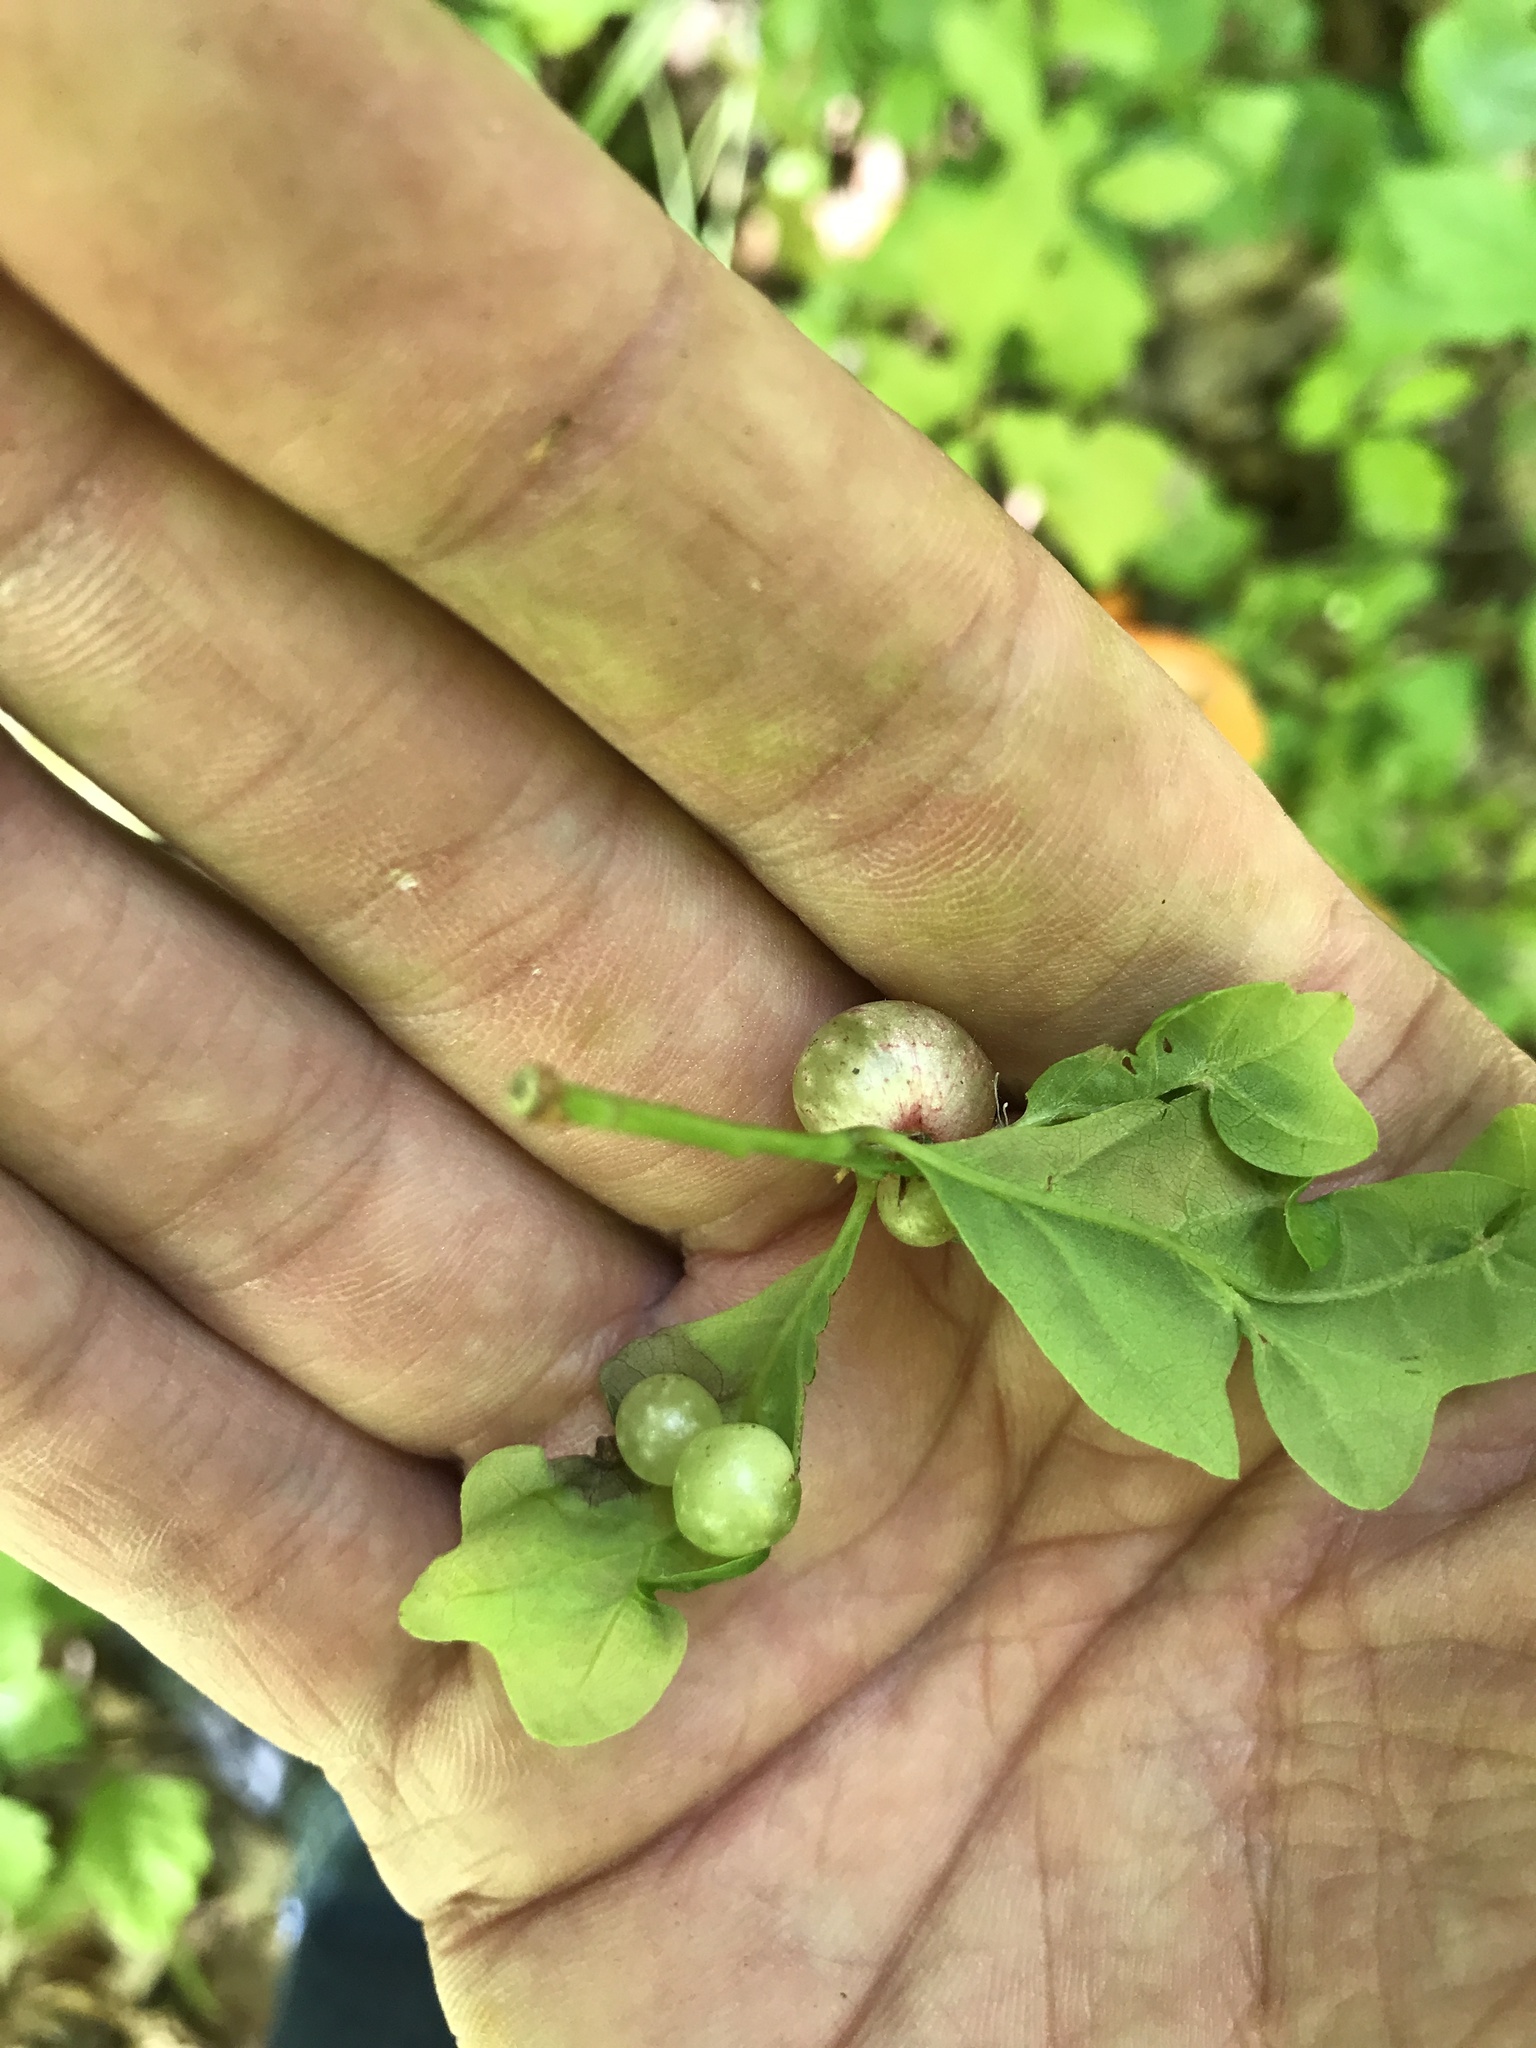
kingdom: Animalia
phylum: Arthropoda
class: Insecta
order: Hymenoptera
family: Cynipidae
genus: Neuroterus
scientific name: Neuroterus quercusbaccarum
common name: Common spangle gall
